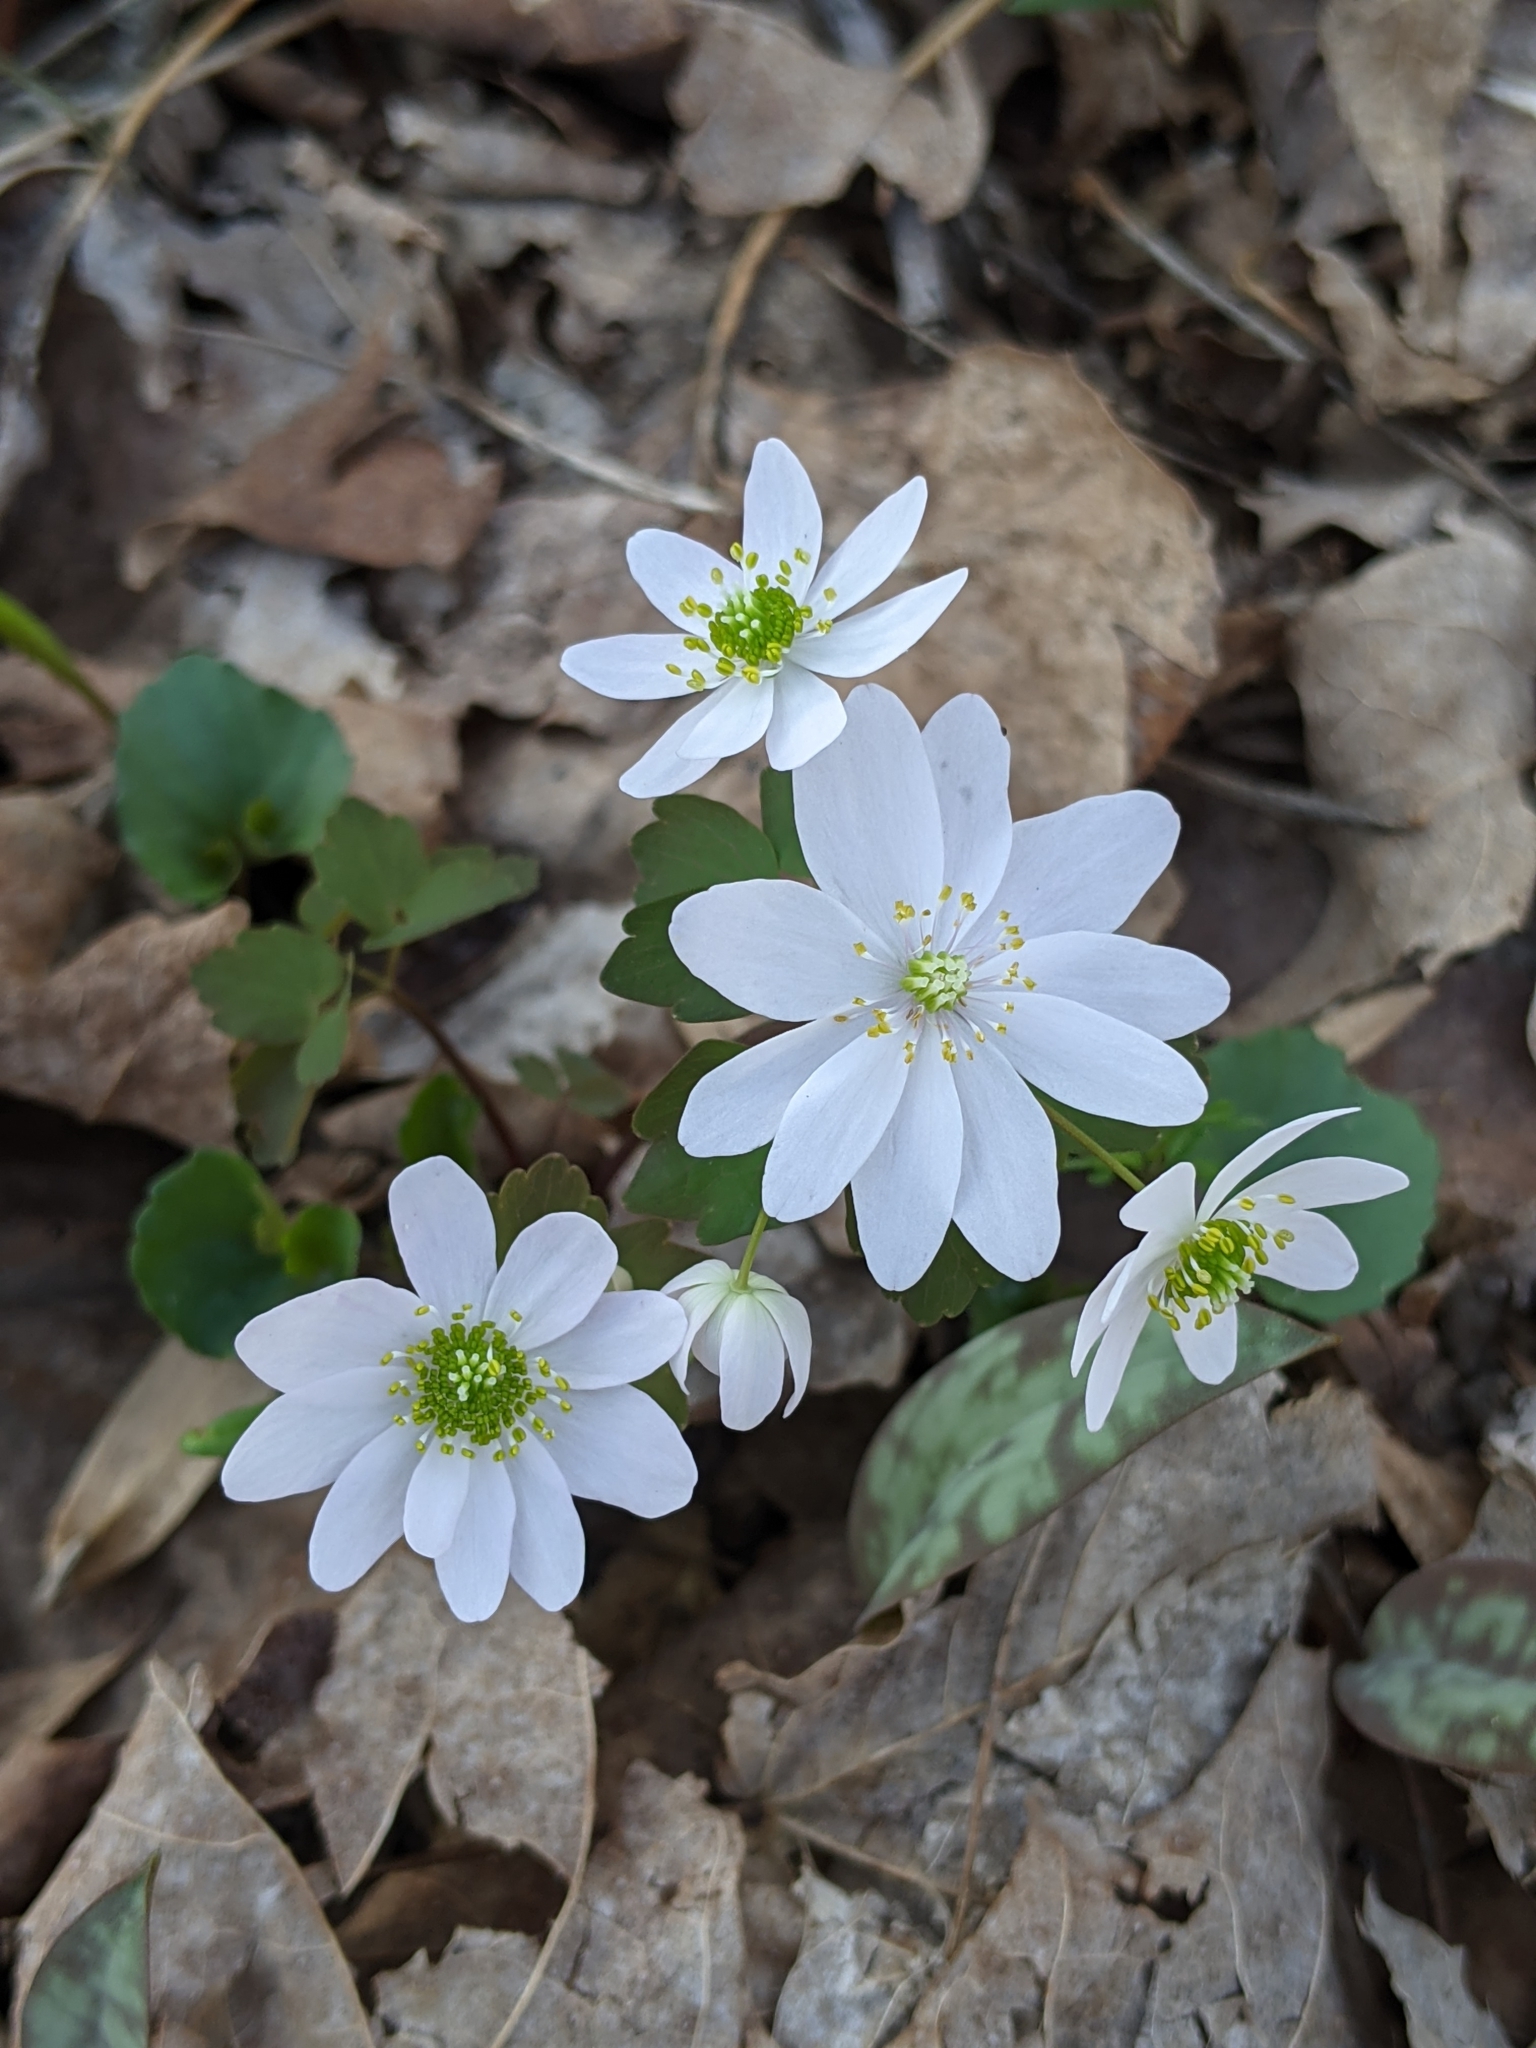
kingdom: Plantae
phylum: Tracheophyta
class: Magnoliopsida
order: Ranunculales
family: Ranunculaceae
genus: Thalictrum
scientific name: Thalictrum thalictroides
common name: Rue-anemone
